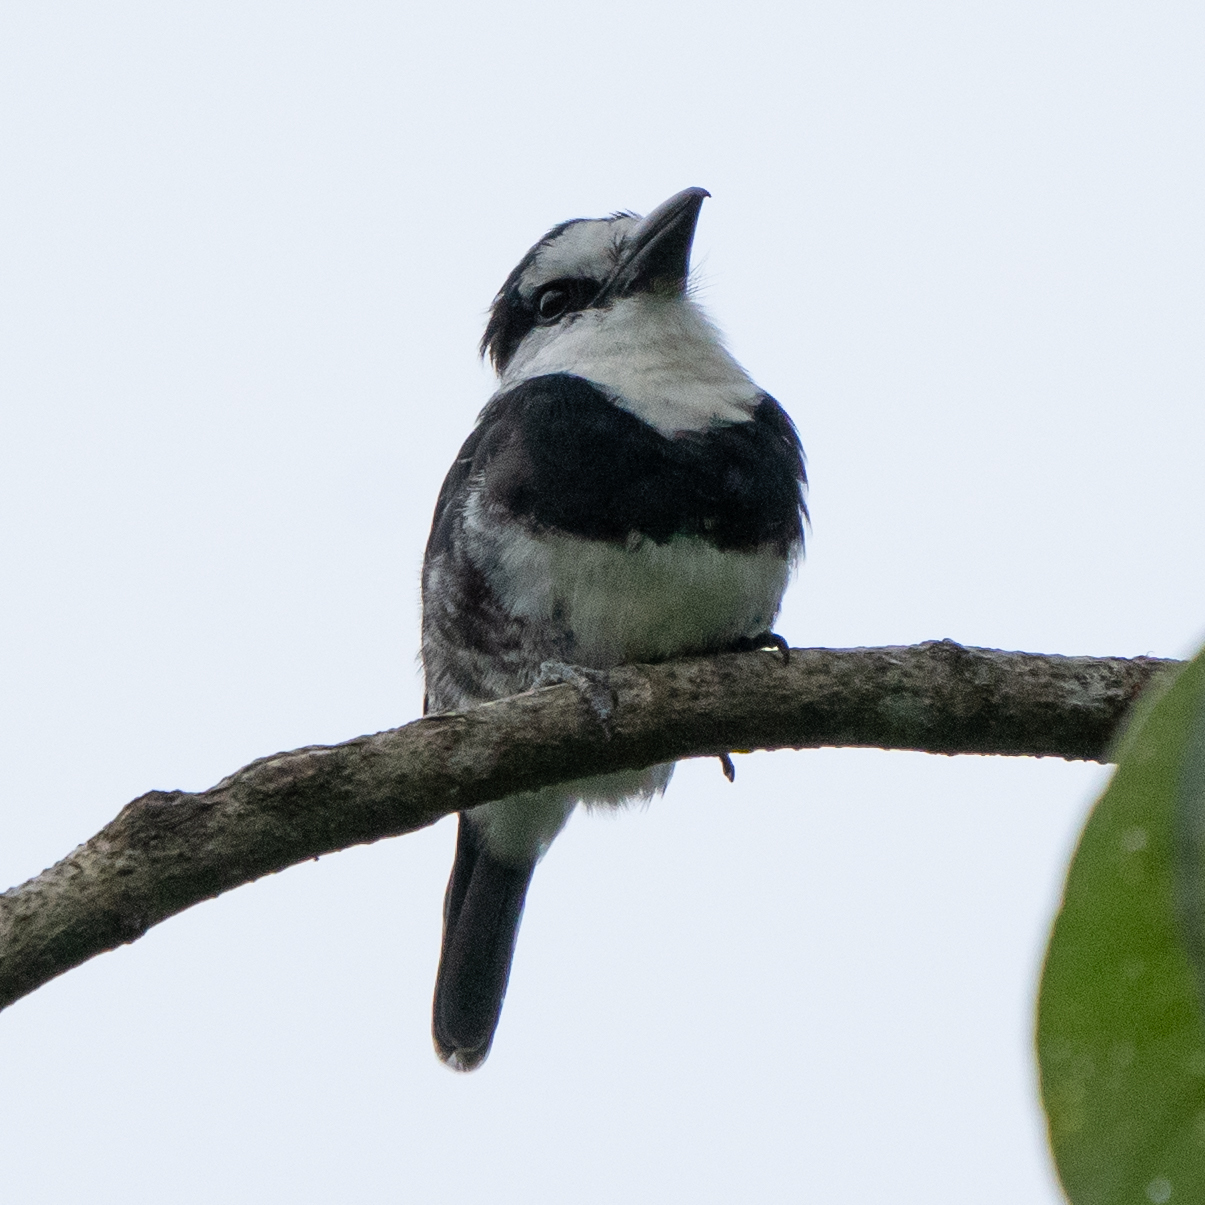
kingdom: Animalia
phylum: Chordata
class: Aves
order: Piciformes
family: Bucconidae
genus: Notharchus
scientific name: Notharchus hyperrhynchus
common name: White-necked puffbird
